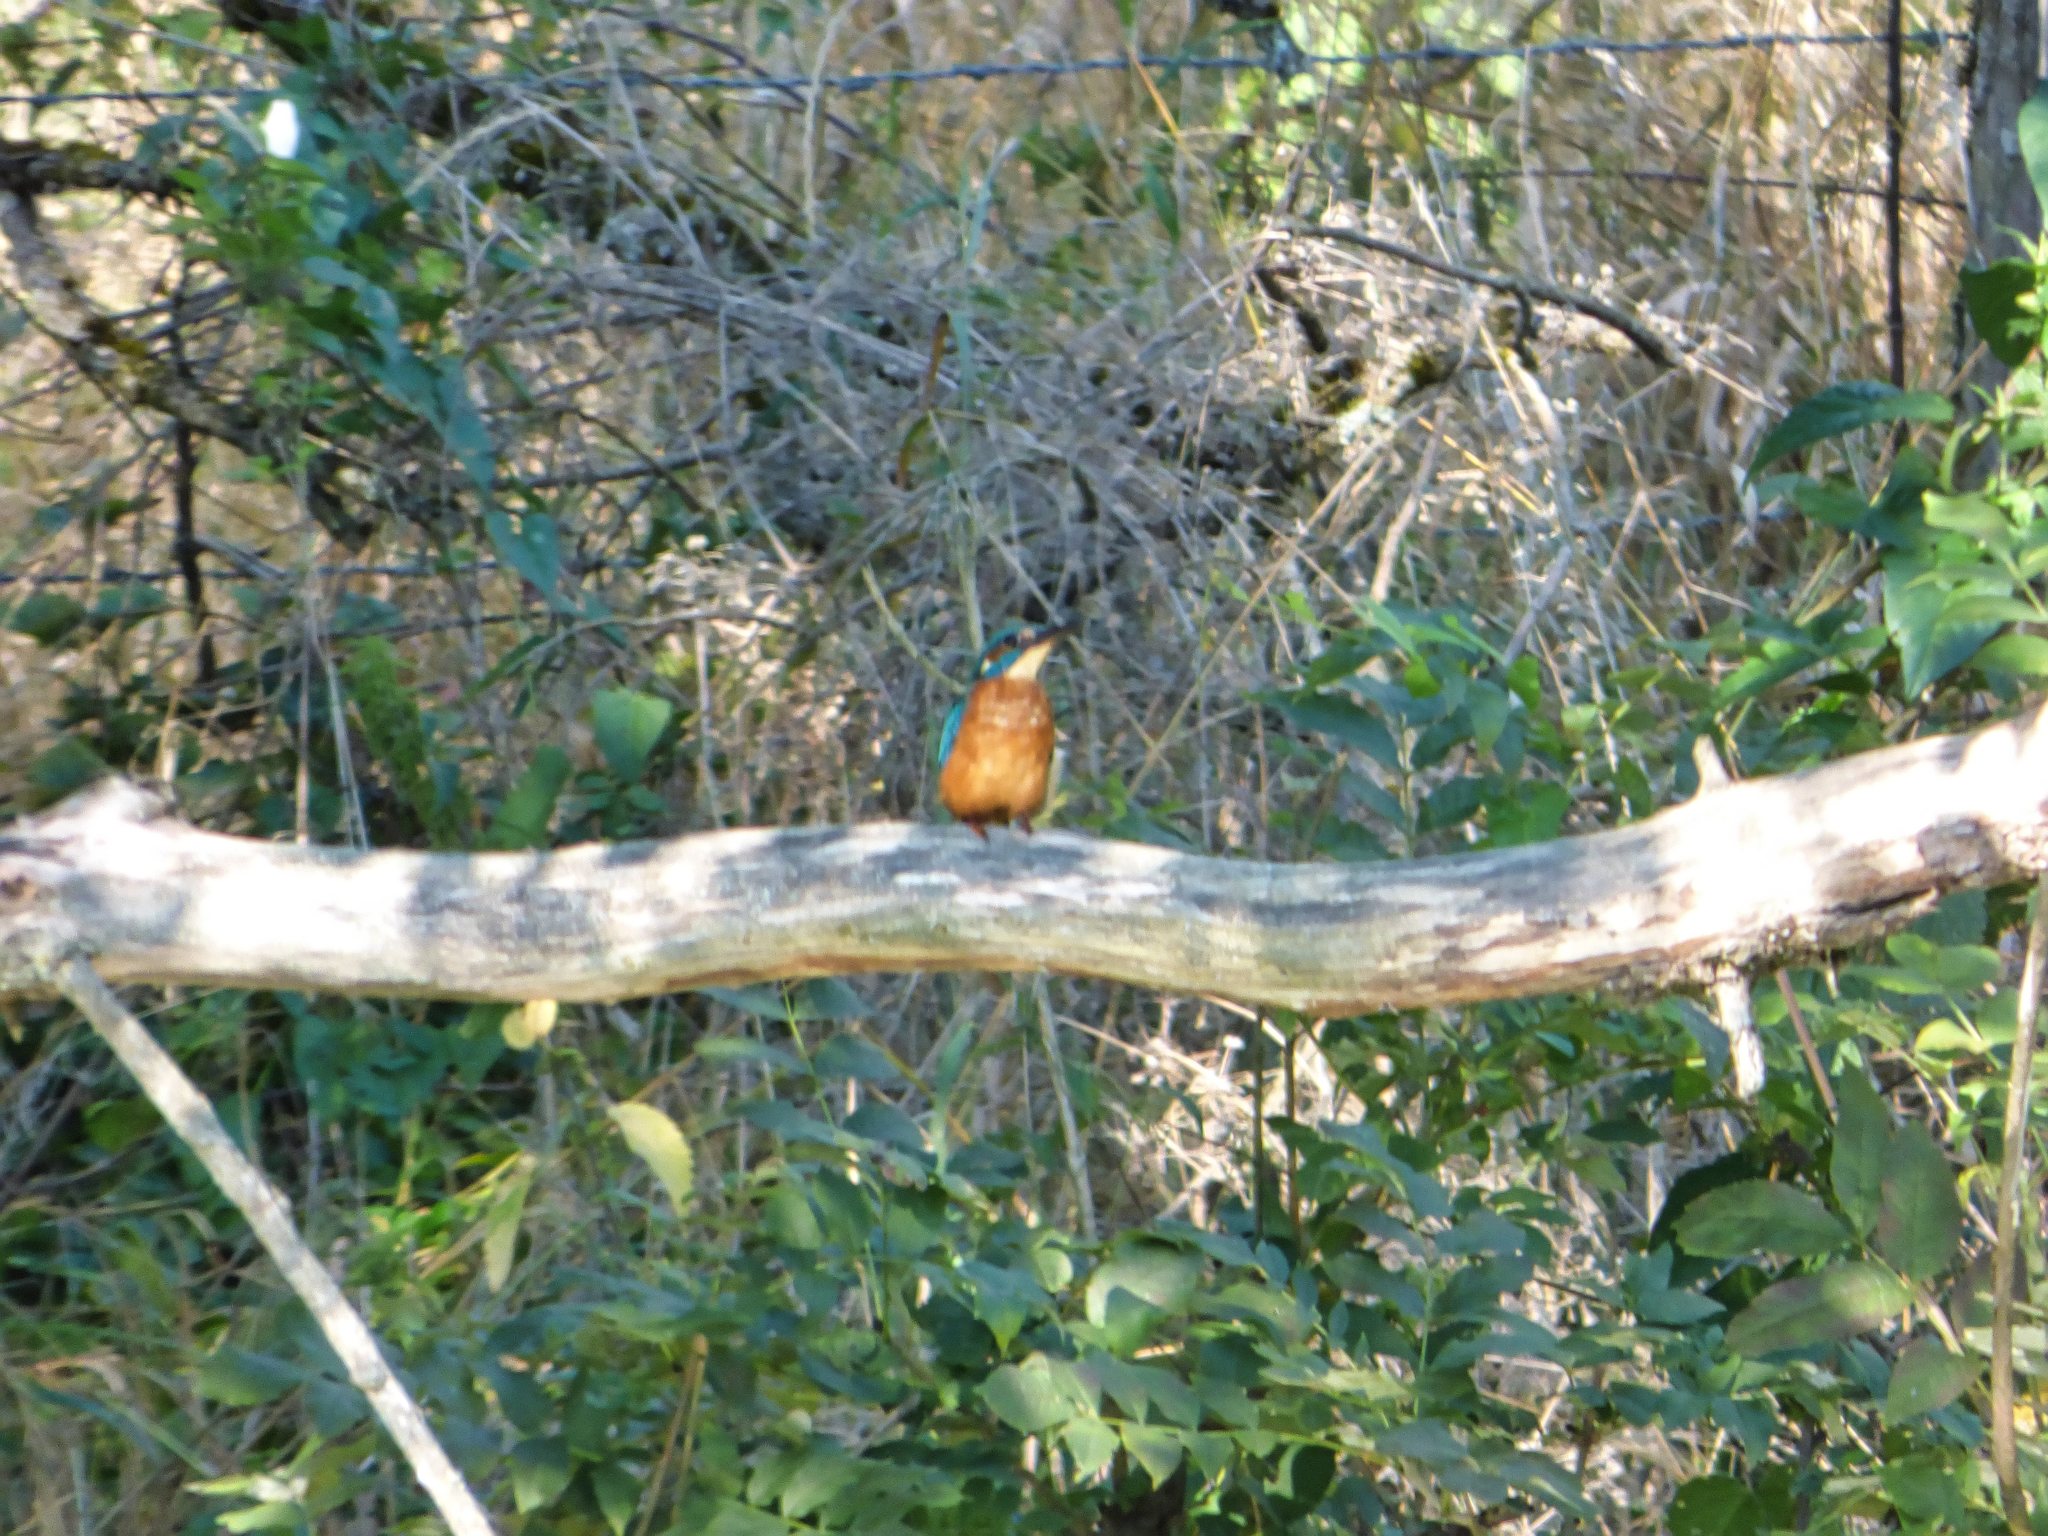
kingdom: Animalia
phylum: Chordata
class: Aves
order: Coraciiformes
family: Alcedinidae
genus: Alcedo
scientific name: Alcedo atthis
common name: Common kingfisher
